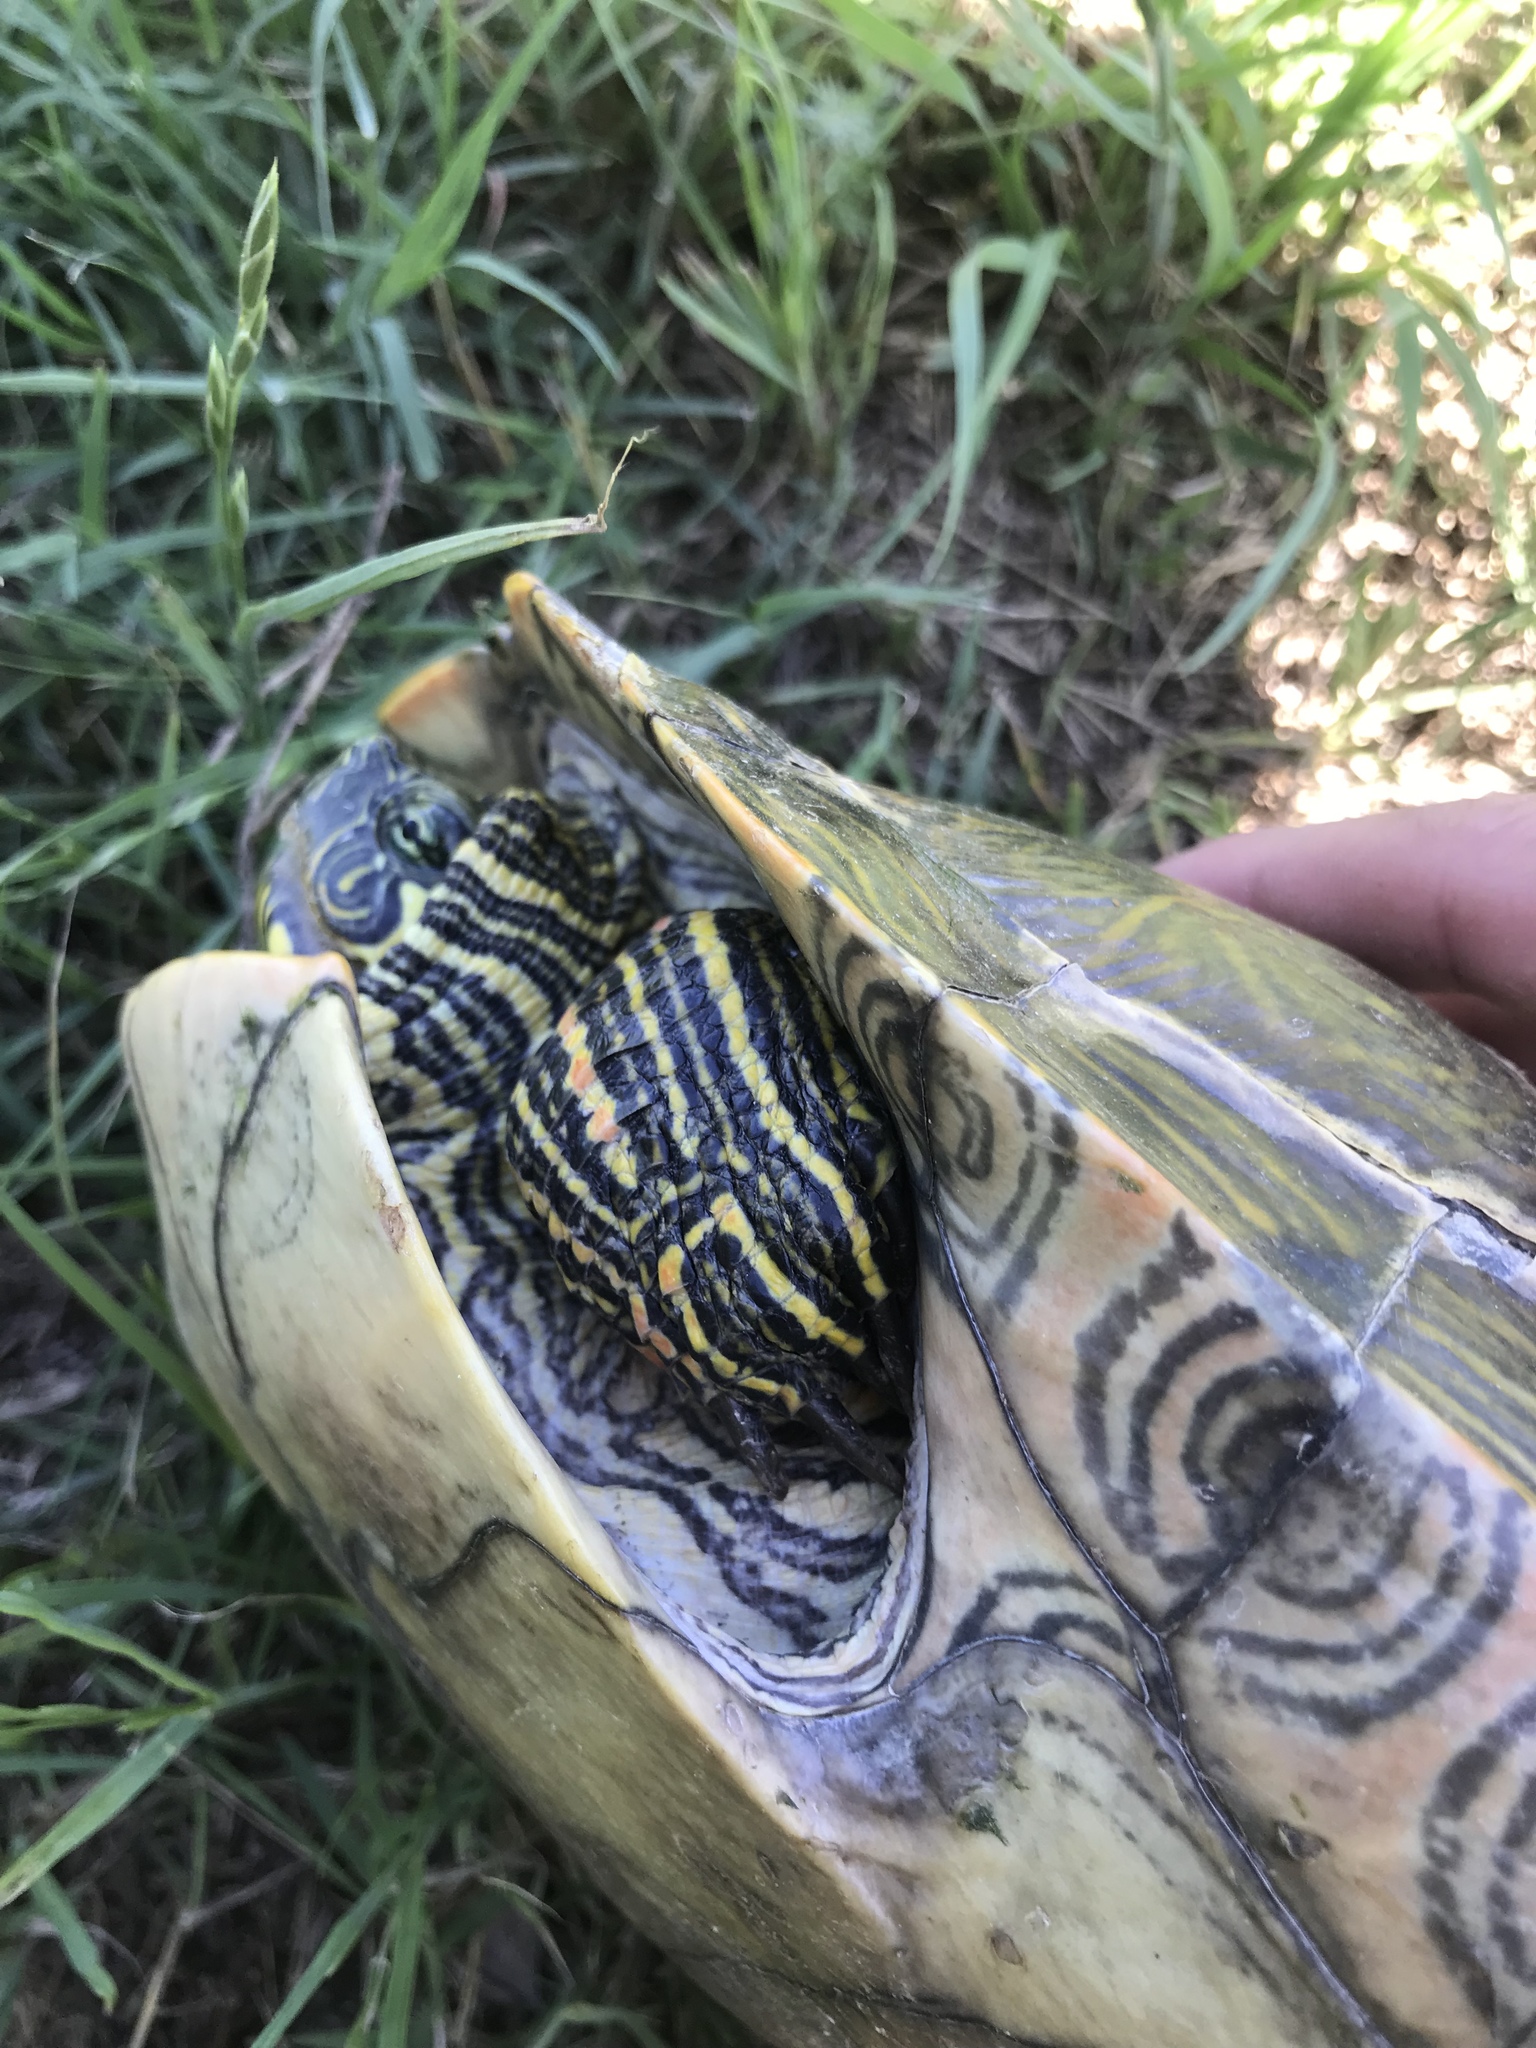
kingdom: Animalia
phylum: Chordata
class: Testudines
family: Emydidae
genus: Pseudemys
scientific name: Pseudemys texana
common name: Texas river cooter
